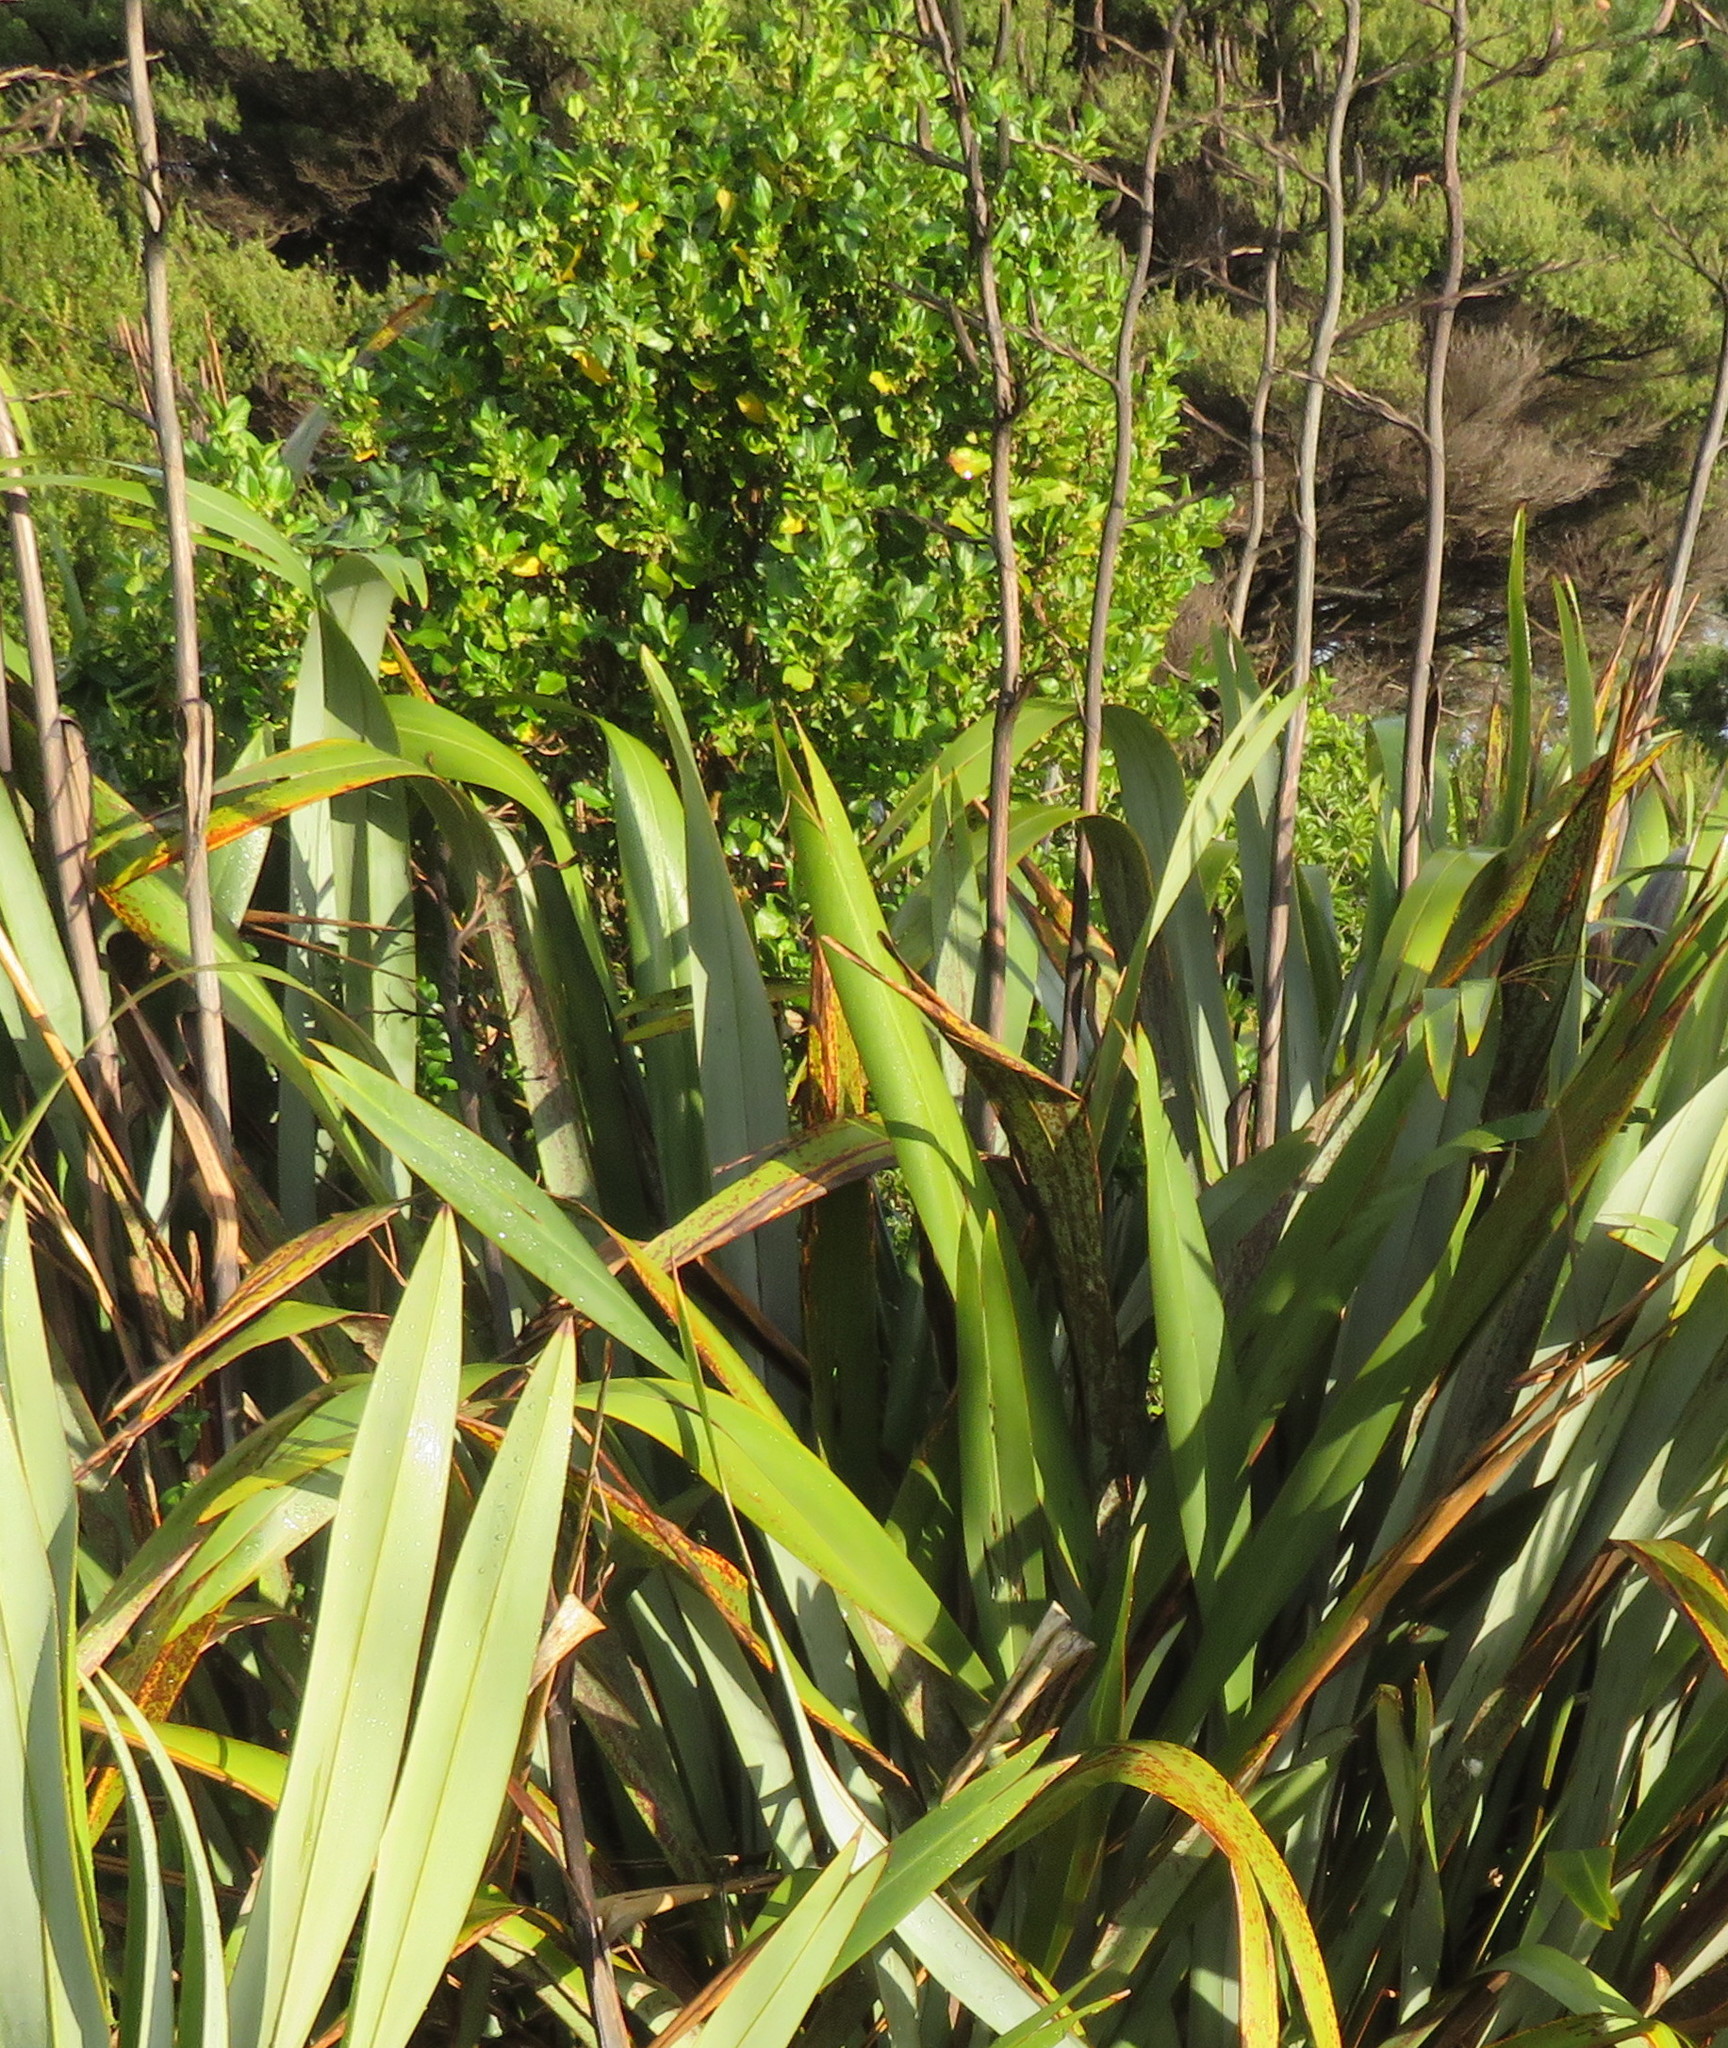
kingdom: Plantae
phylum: Tracheophyta
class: Magnoliopsida
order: Gentianales
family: Rubiaceae
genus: Coprosma
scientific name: Coprosma repens
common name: Tree bedstraw
